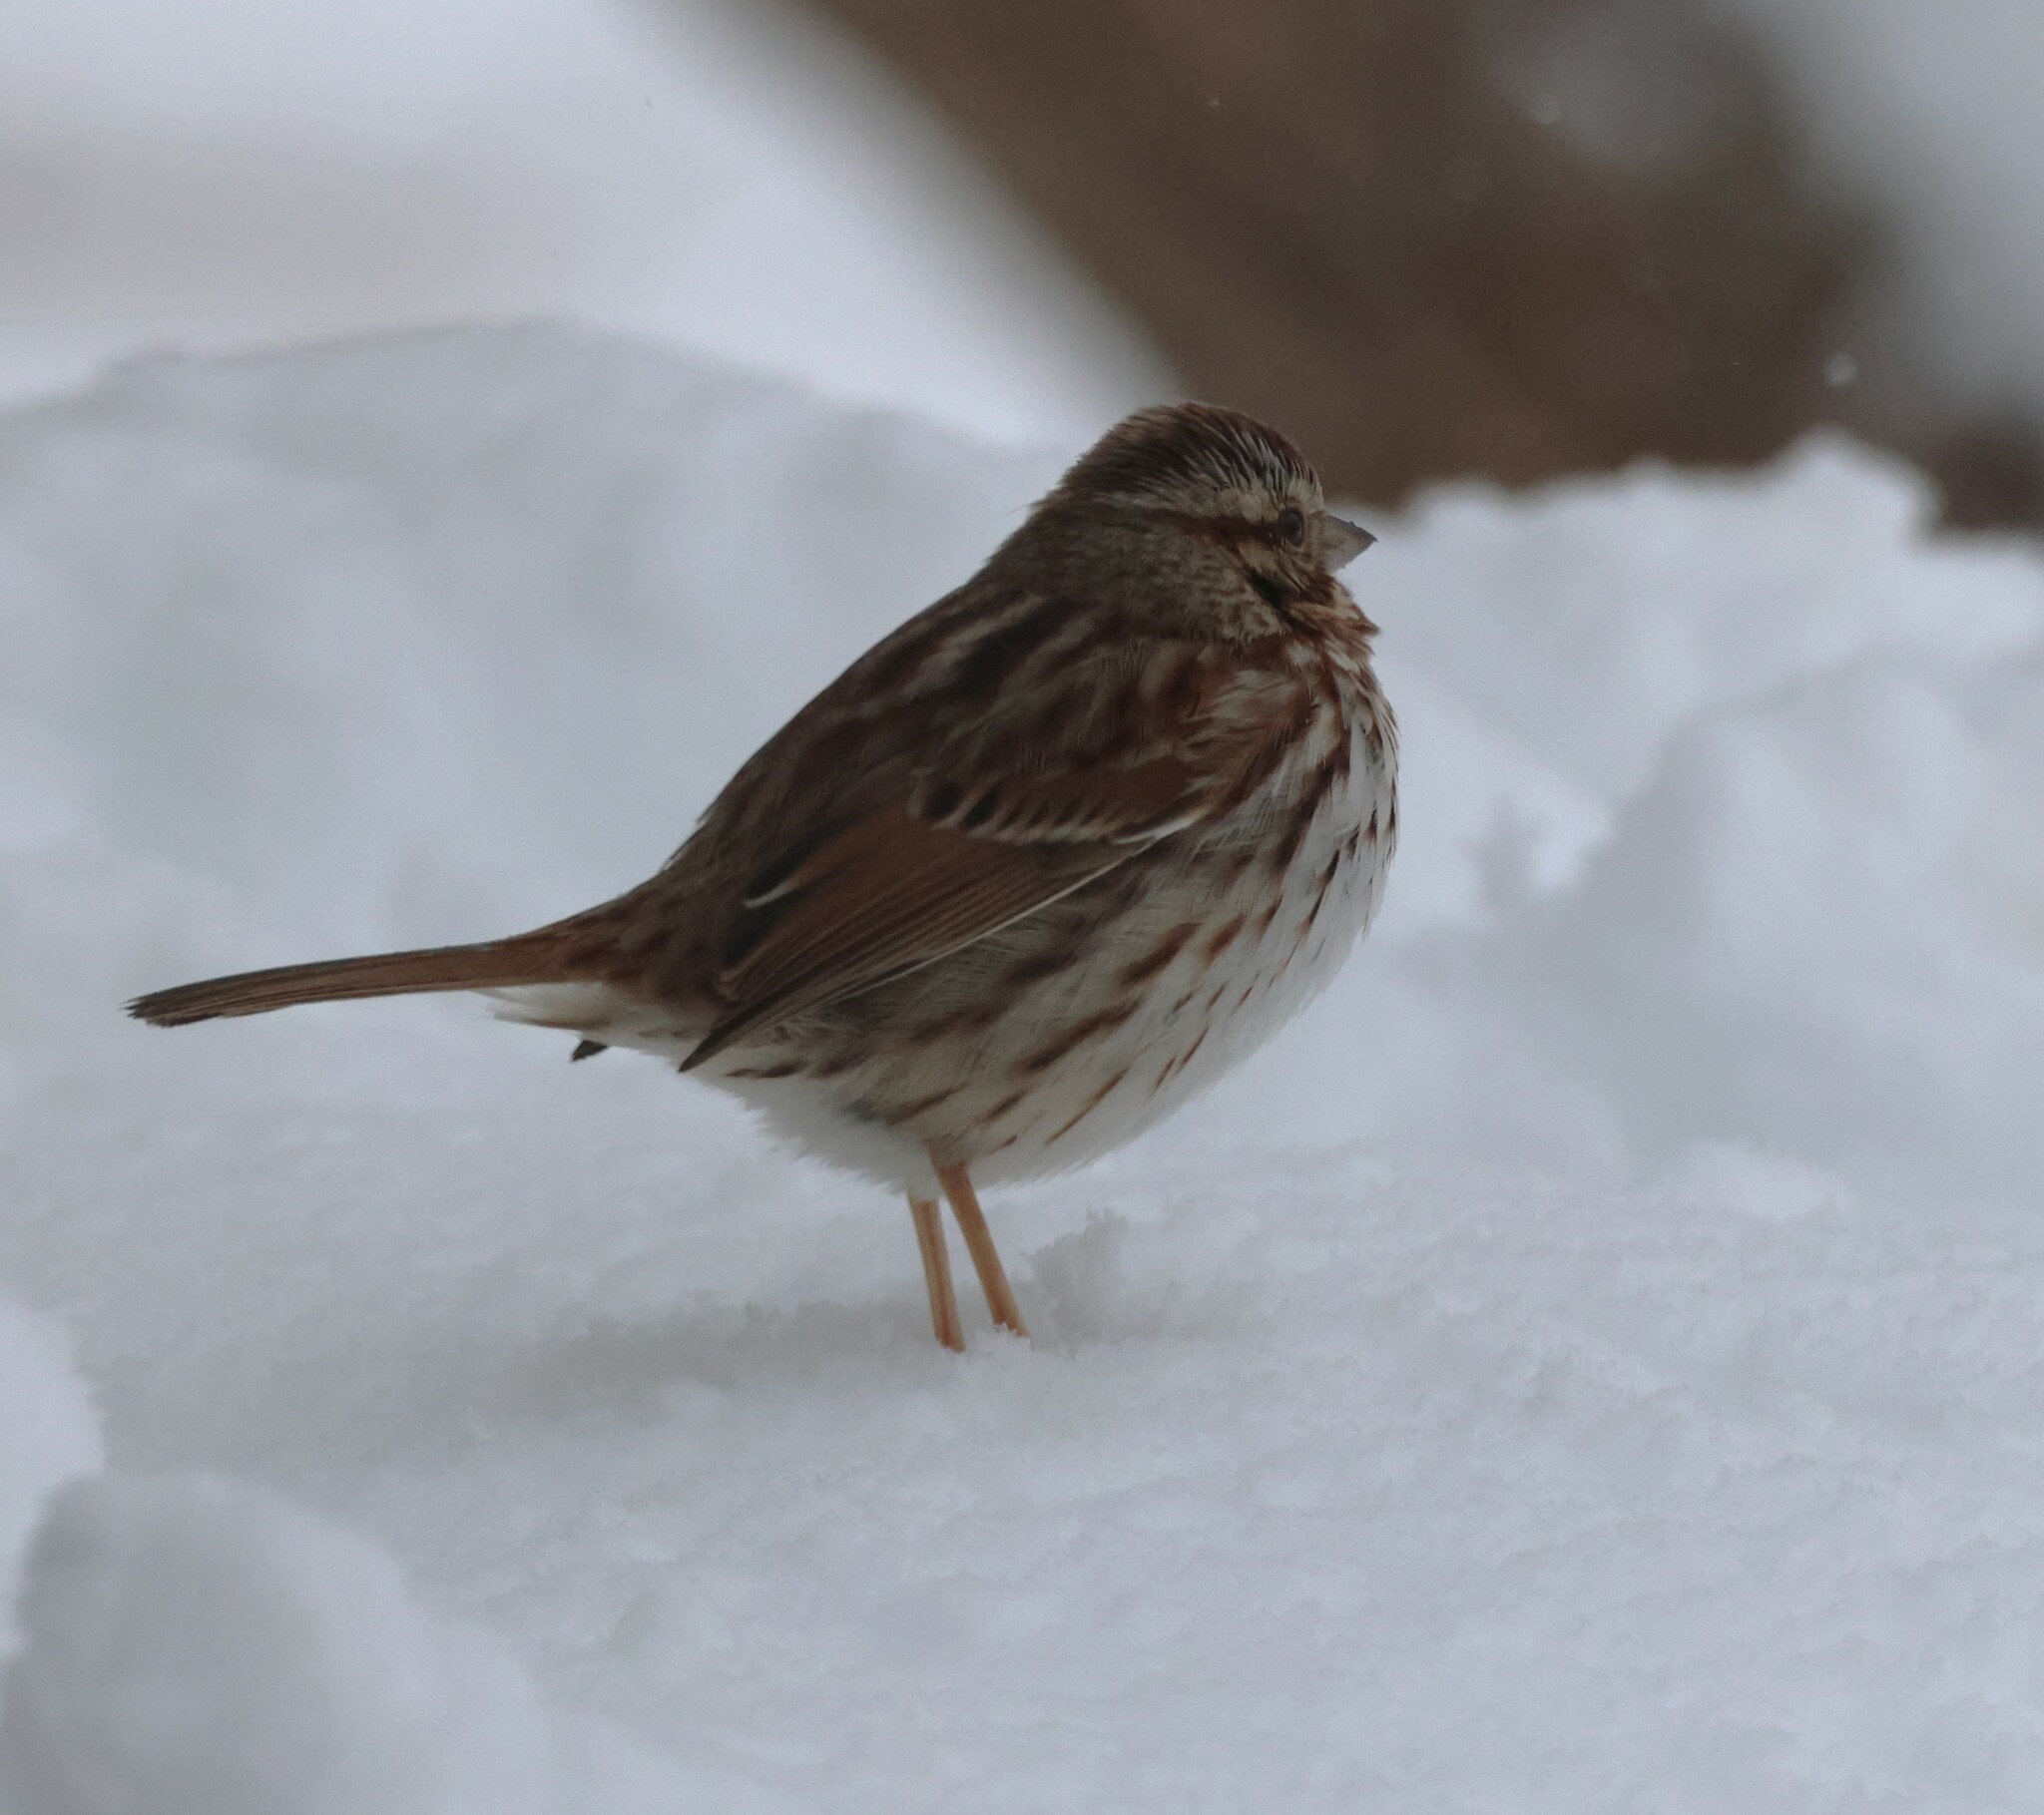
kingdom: Animalia
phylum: Chordata
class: Aves
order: Passeriformes
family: Passerellidae
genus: Melospiza
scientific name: Melospiza melodia
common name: Song sparrow
